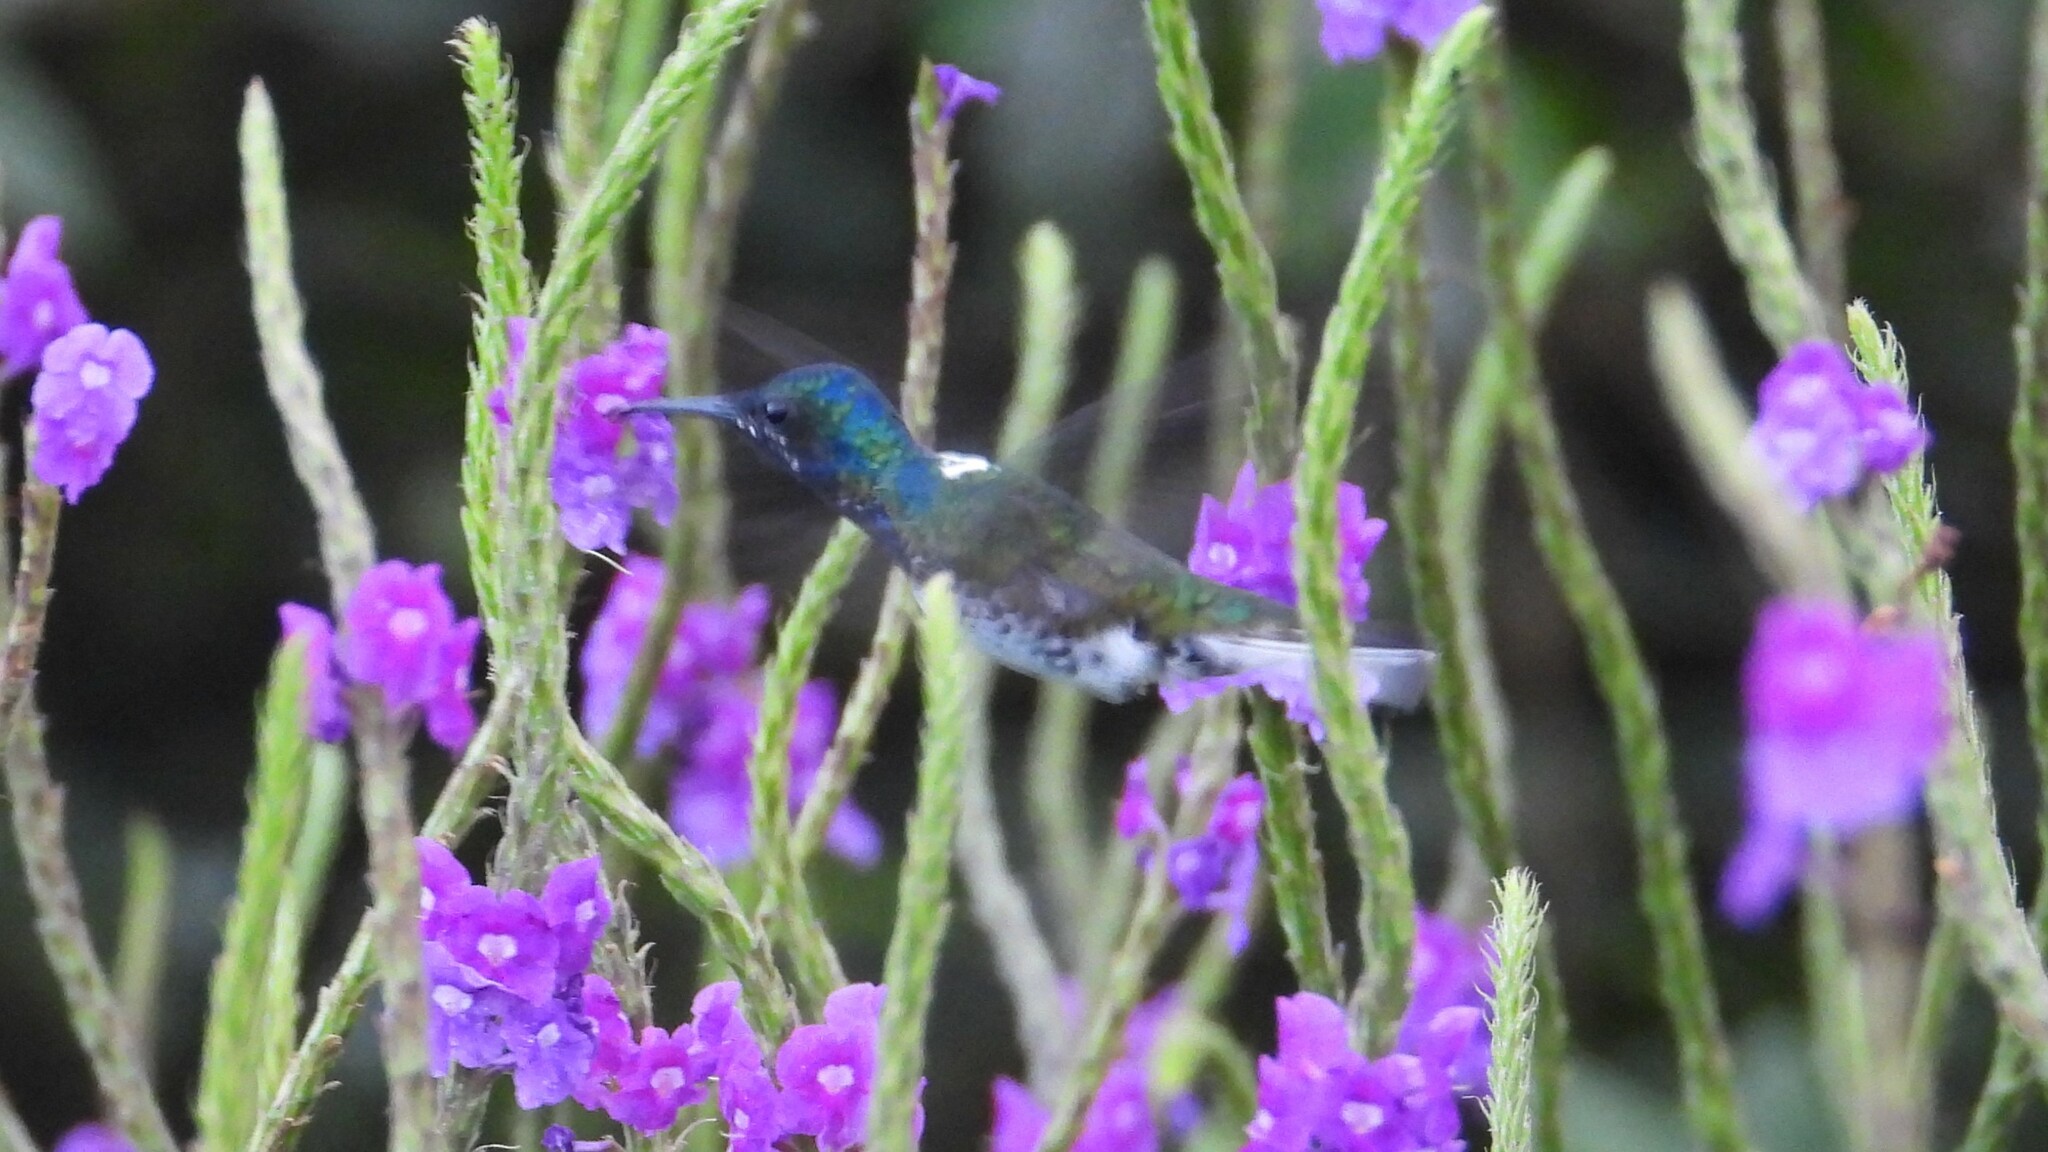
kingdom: Animalia
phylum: Chordata
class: Aves
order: Apodiformes
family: Trochilidae
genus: Florisuga
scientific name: Florisuga mellivora
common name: White-necked jacobin
